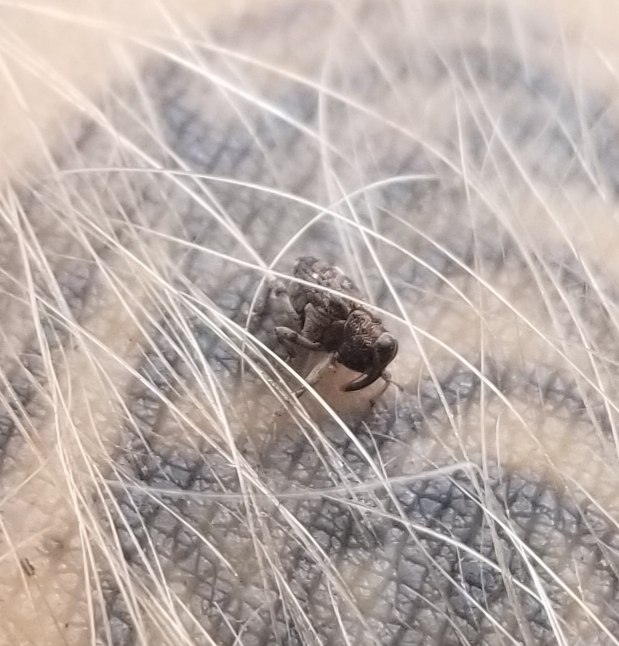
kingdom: Animalia
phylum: Arthropoda
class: Insecta
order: Coleoptera
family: Curculionidae
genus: Lechriops
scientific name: Lechriops oculatus
